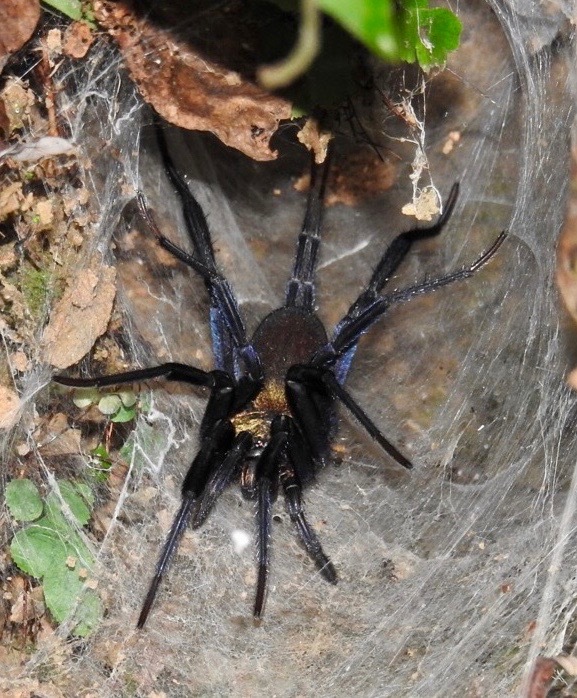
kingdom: Animalia
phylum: Arthropoda
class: Arachnida
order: Araneae
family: Dipluridae
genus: Linothele
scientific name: Linothele sericata
